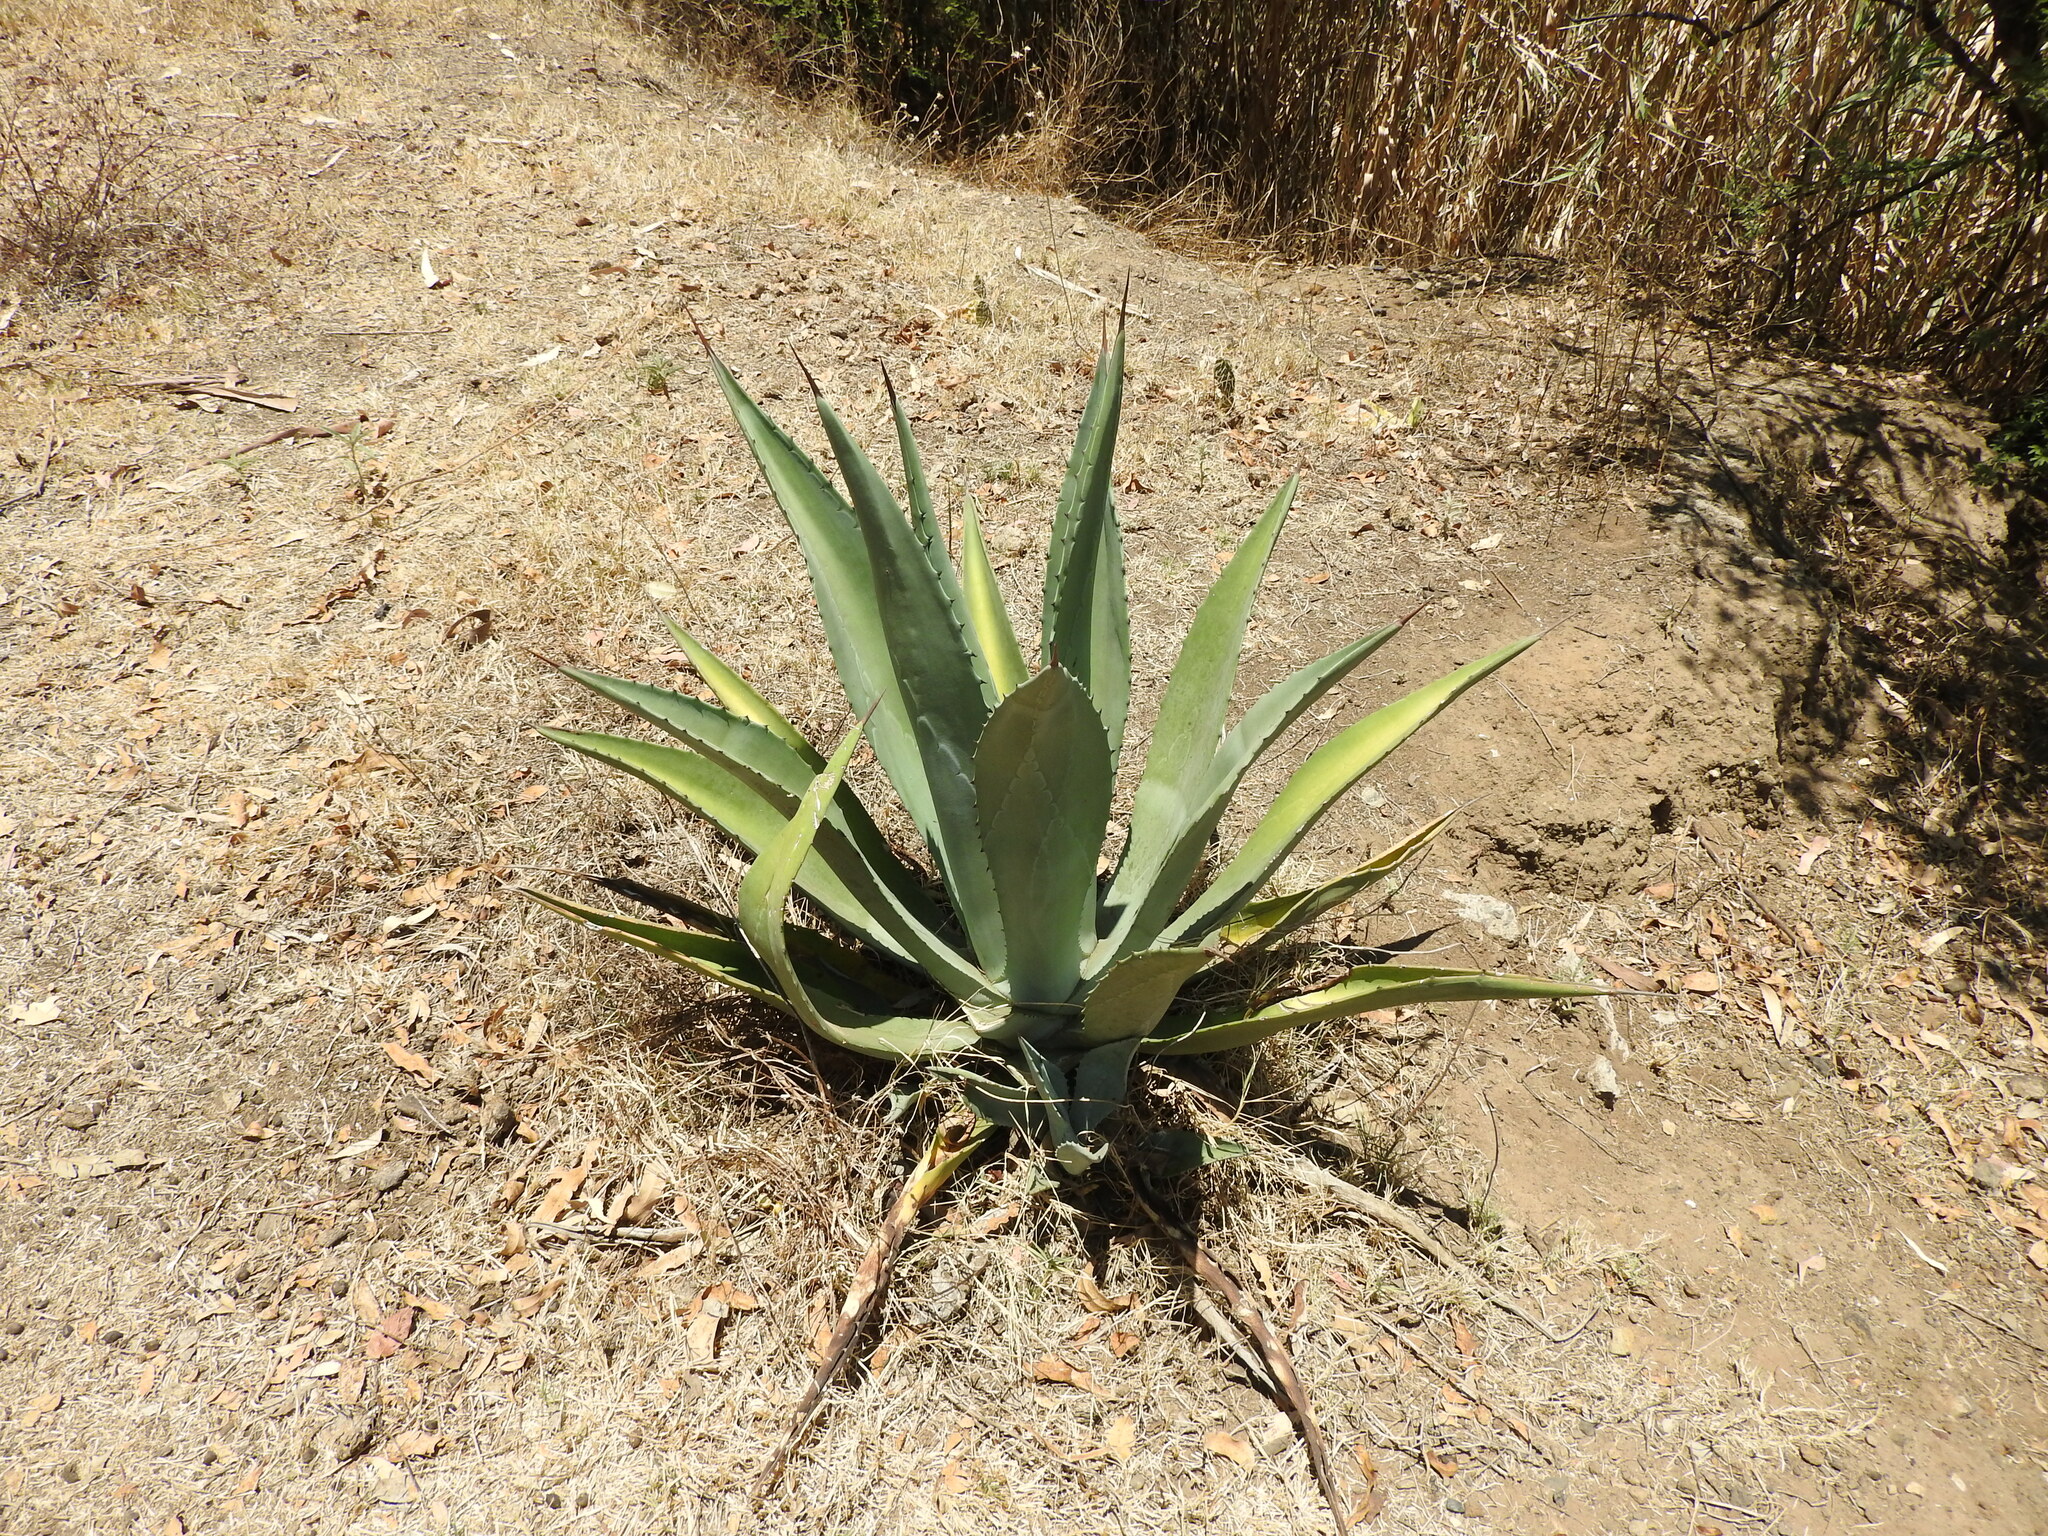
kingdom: Plantae
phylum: Tracheophyta
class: Liliopsida
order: Asparagales
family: Asparagaceae
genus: Agave
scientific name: Agave americana
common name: Centuryplant
